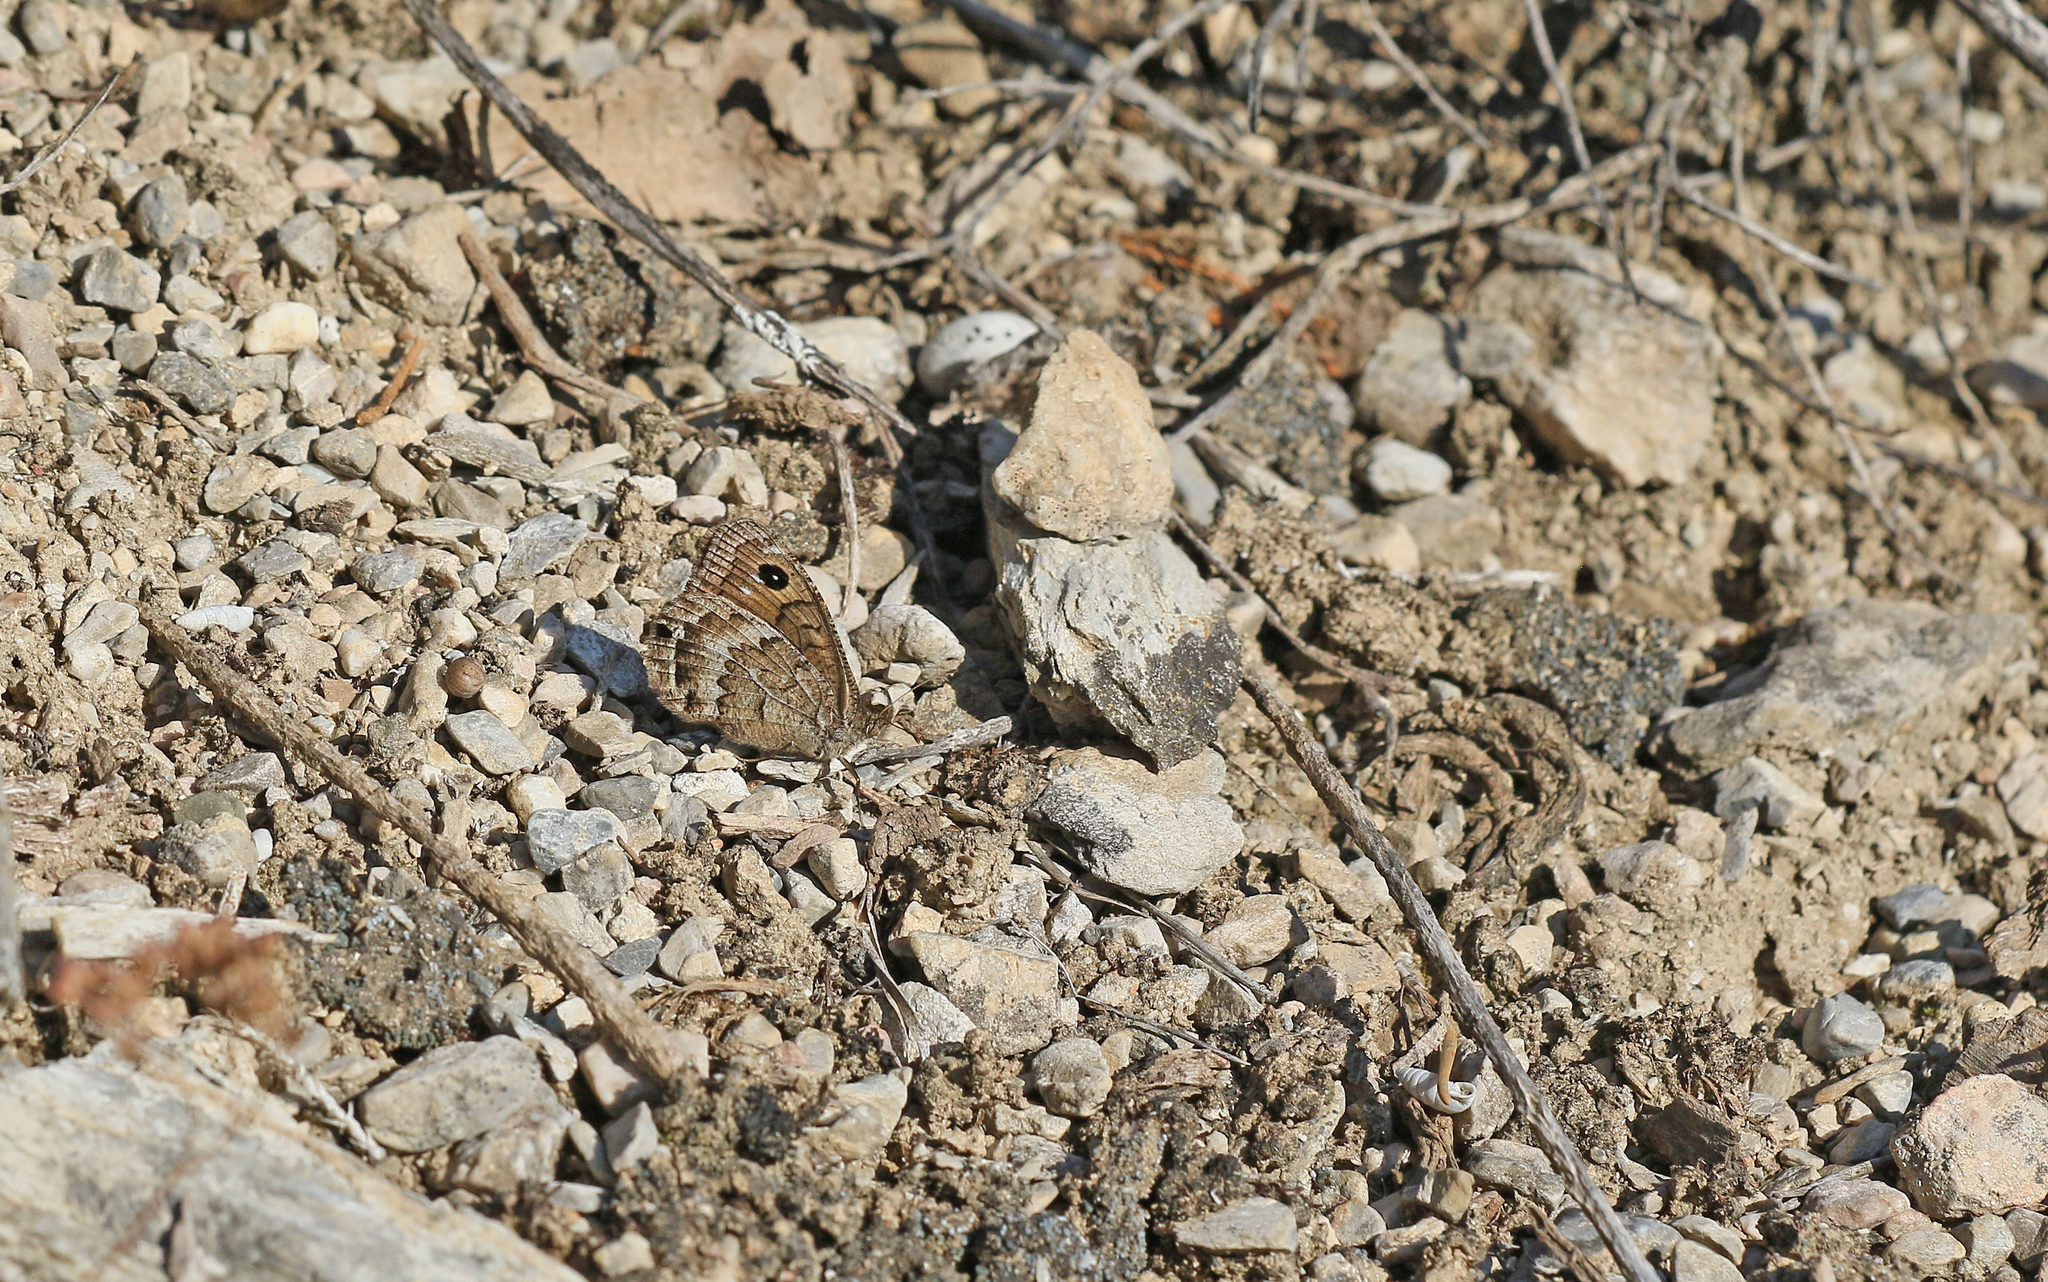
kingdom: Animalia
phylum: Arthropoda
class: Insecta
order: Lepidoptera
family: Nymphalidae
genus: Satyrus
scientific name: Satyrus actaea
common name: Black satyr
